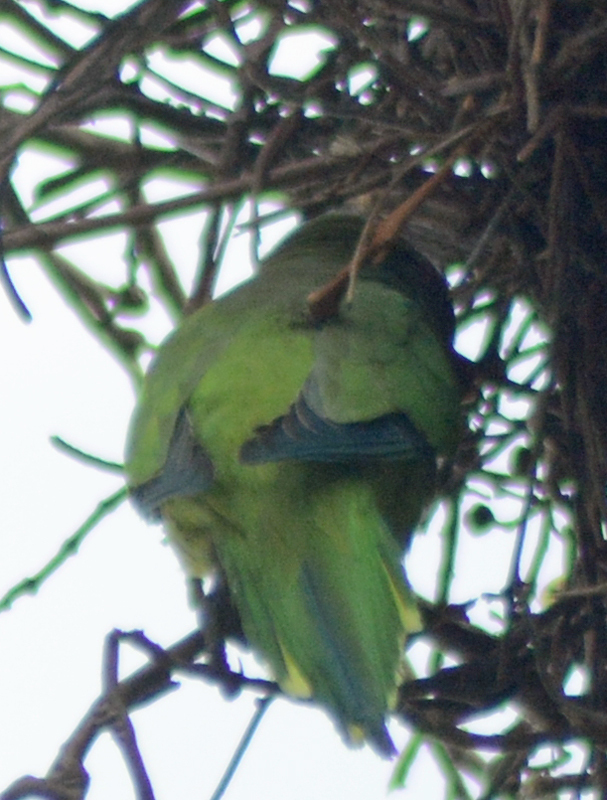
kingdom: Animalia
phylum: Chordata
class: Aves
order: Psittaciformes
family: Psittacidae
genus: Myiopsitta
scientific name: Myiopsitta monachus
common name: Monk parakeet
